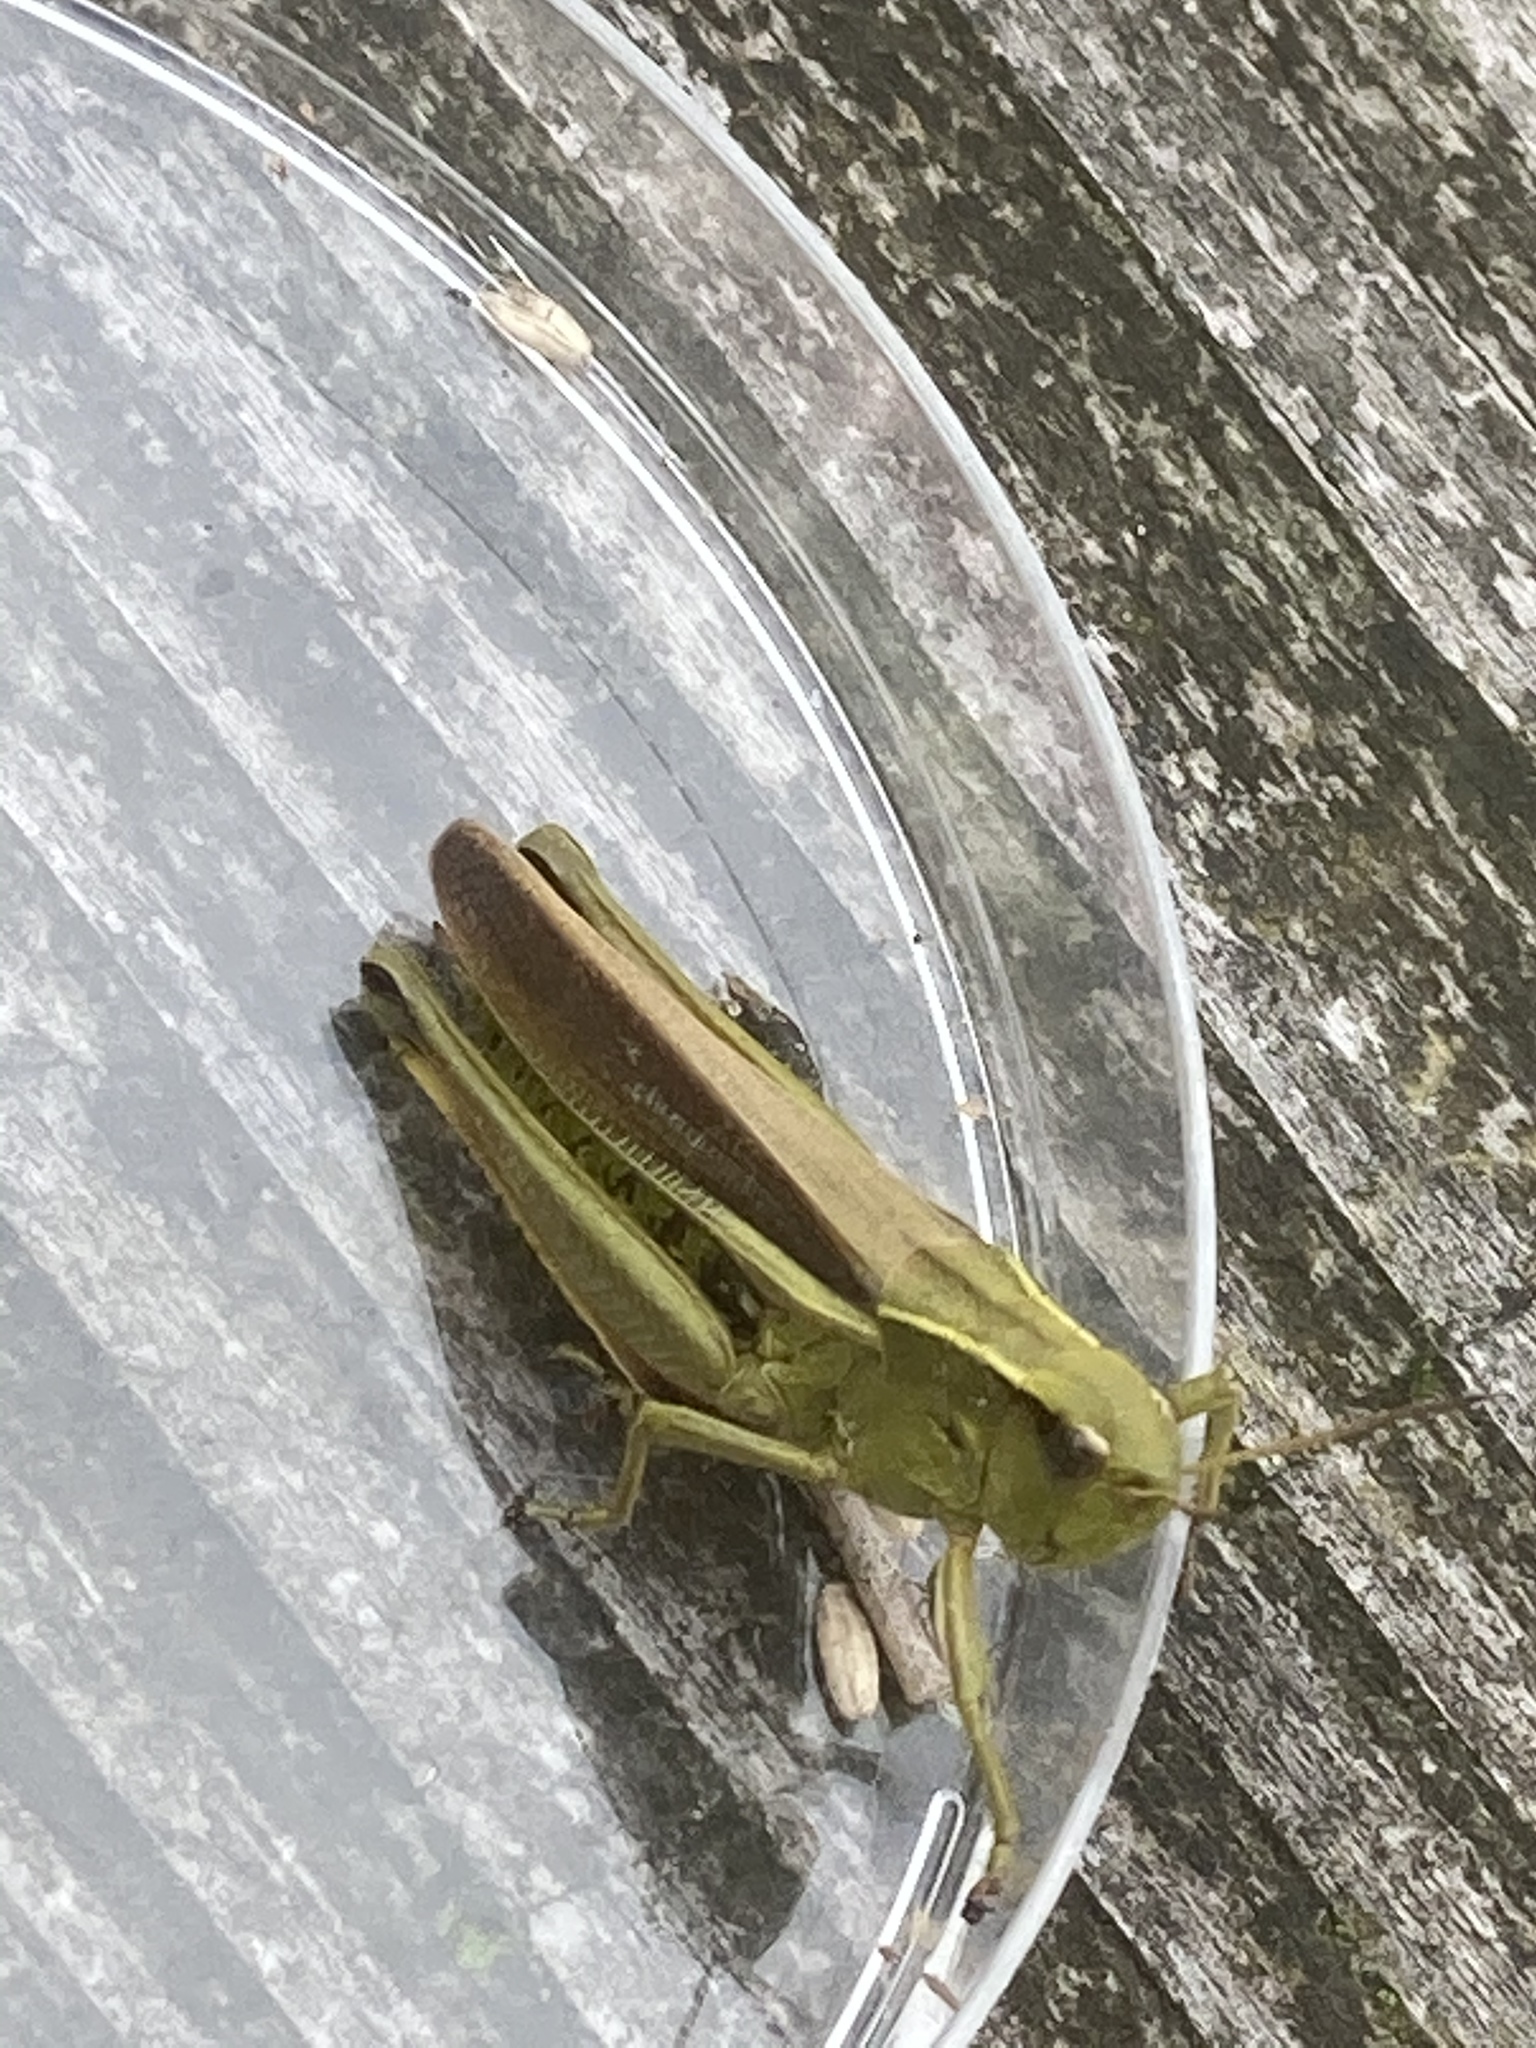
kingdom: Animalia
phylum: Arthropoda
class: Insecta
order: Orthoptera
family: Acrididae
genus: Stethophyma
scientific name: Stethophyma grossum
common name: Large marsh grasshopper
